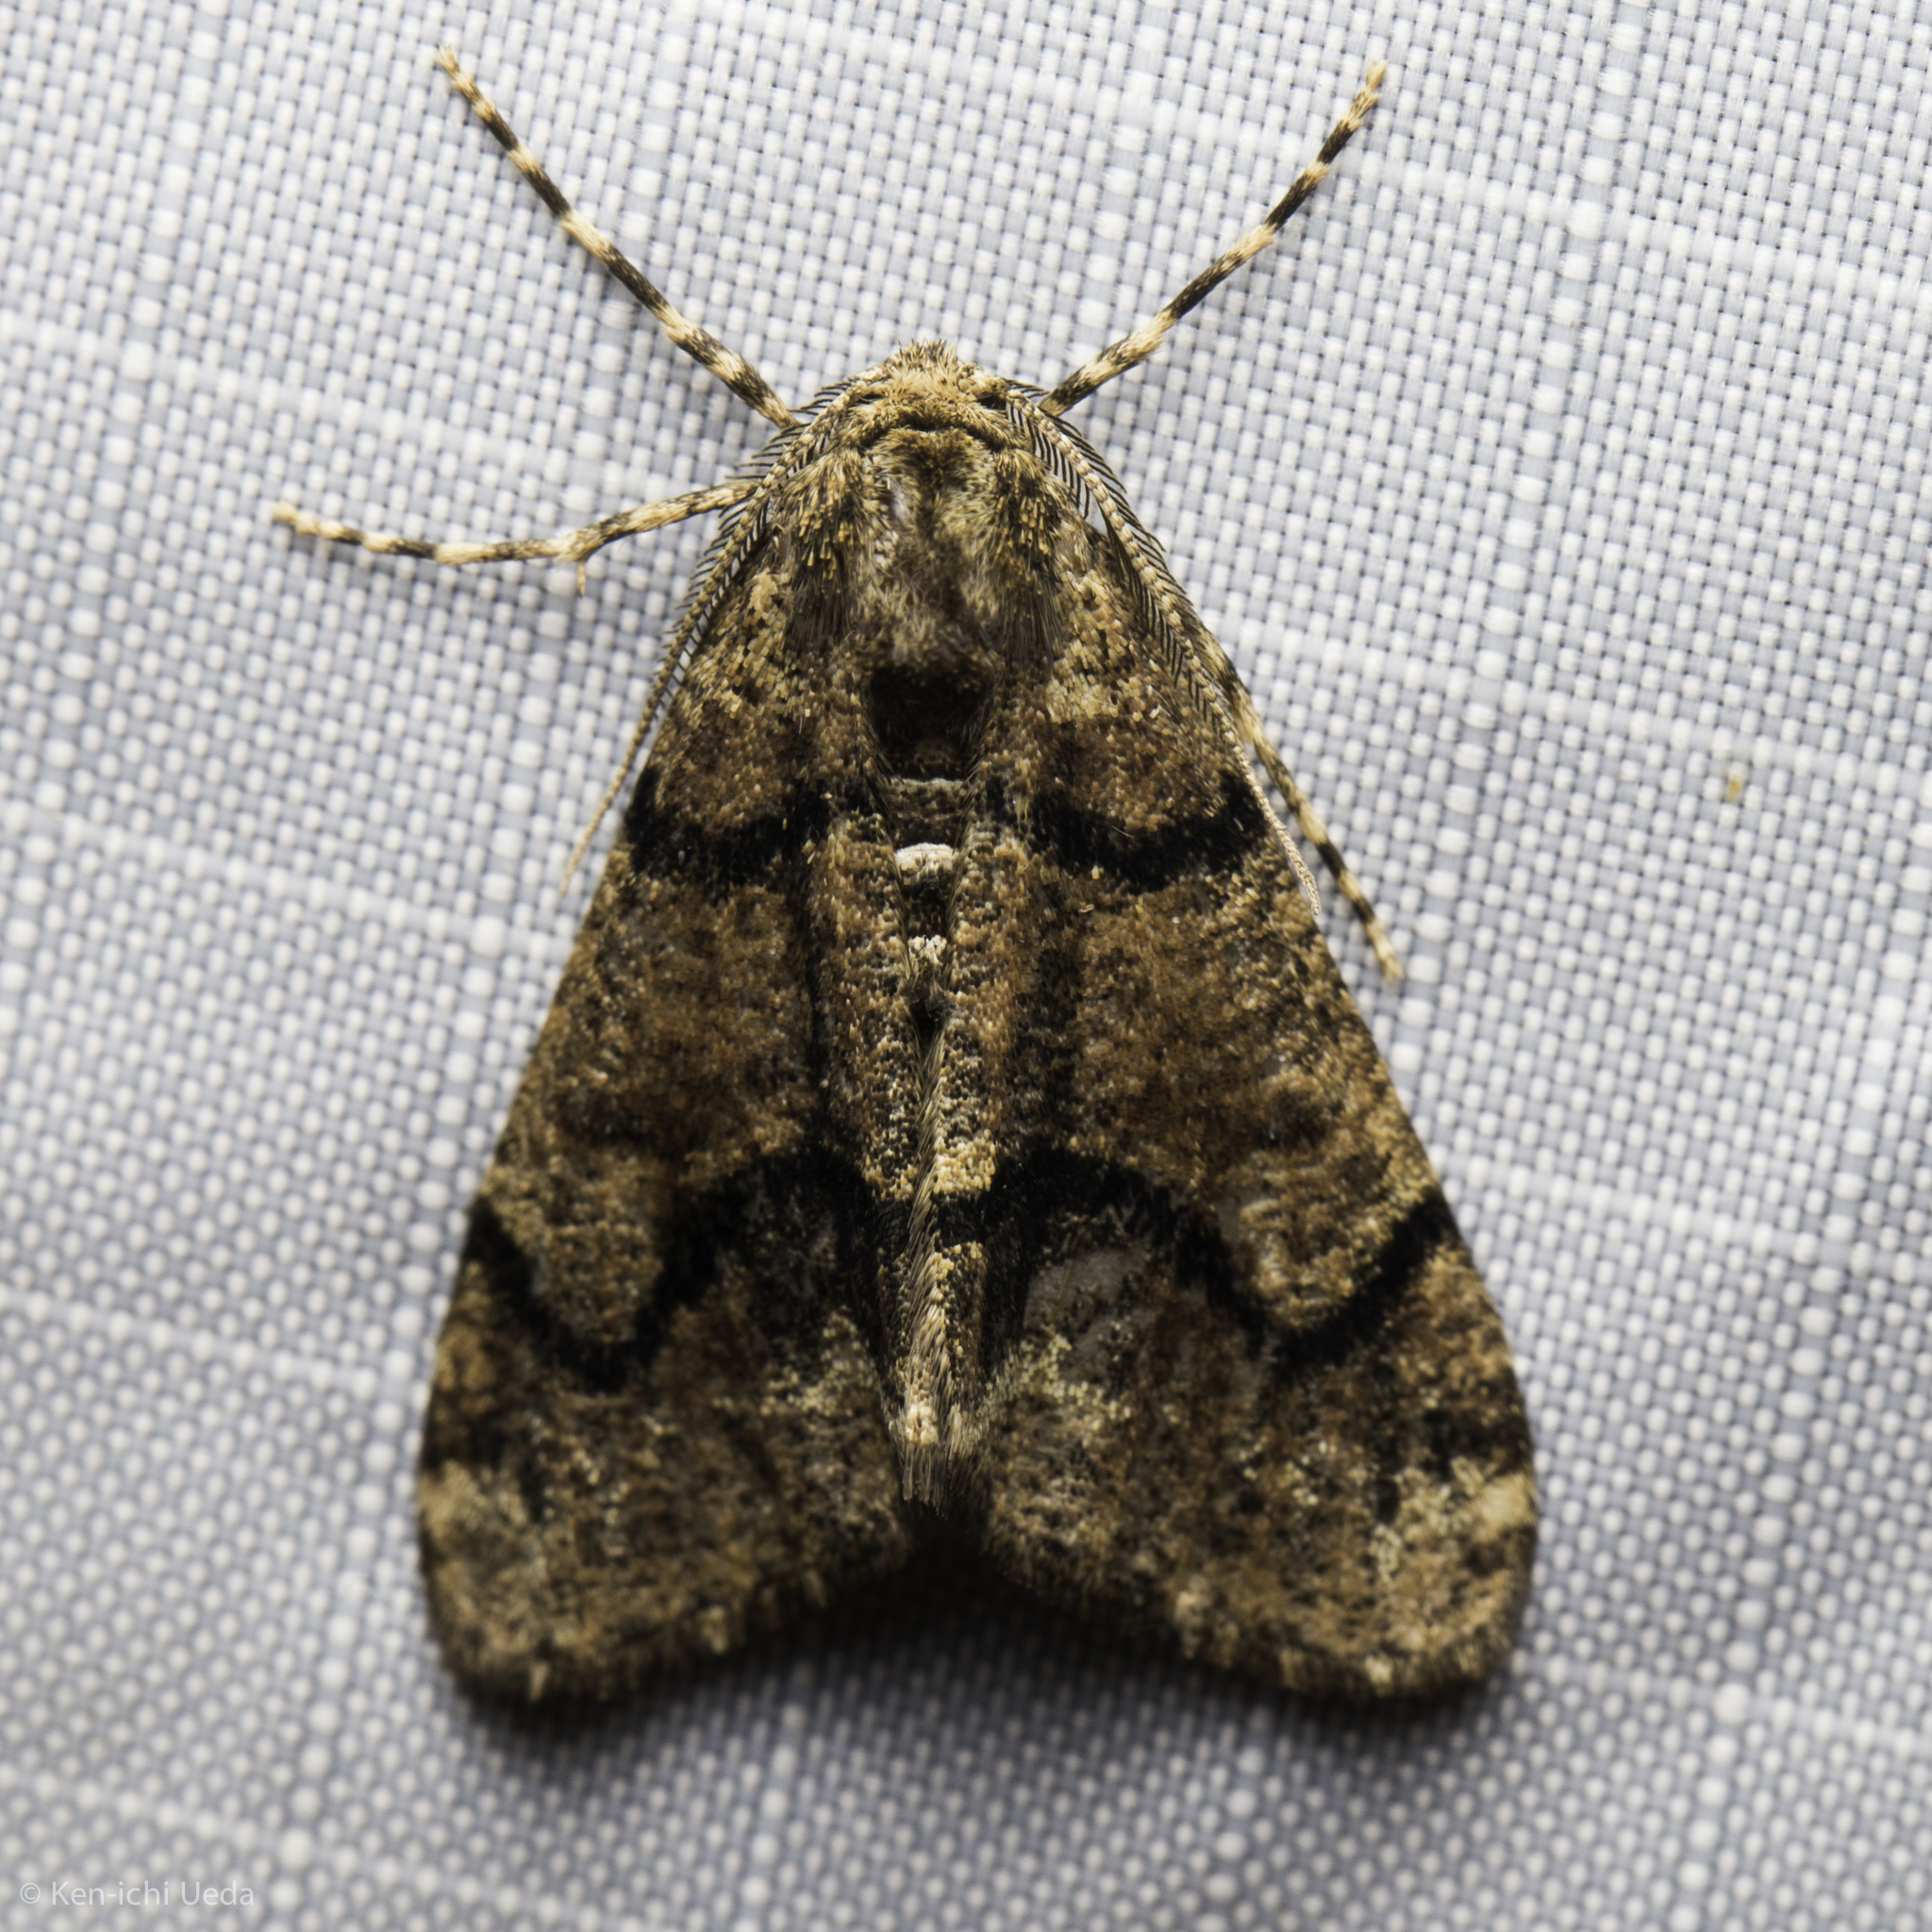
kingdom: Animalia
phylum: Arthropoda
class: Insecta
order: Lepidoptera
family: Geometridae
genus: Gabriola
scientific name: Gabriola dyari
